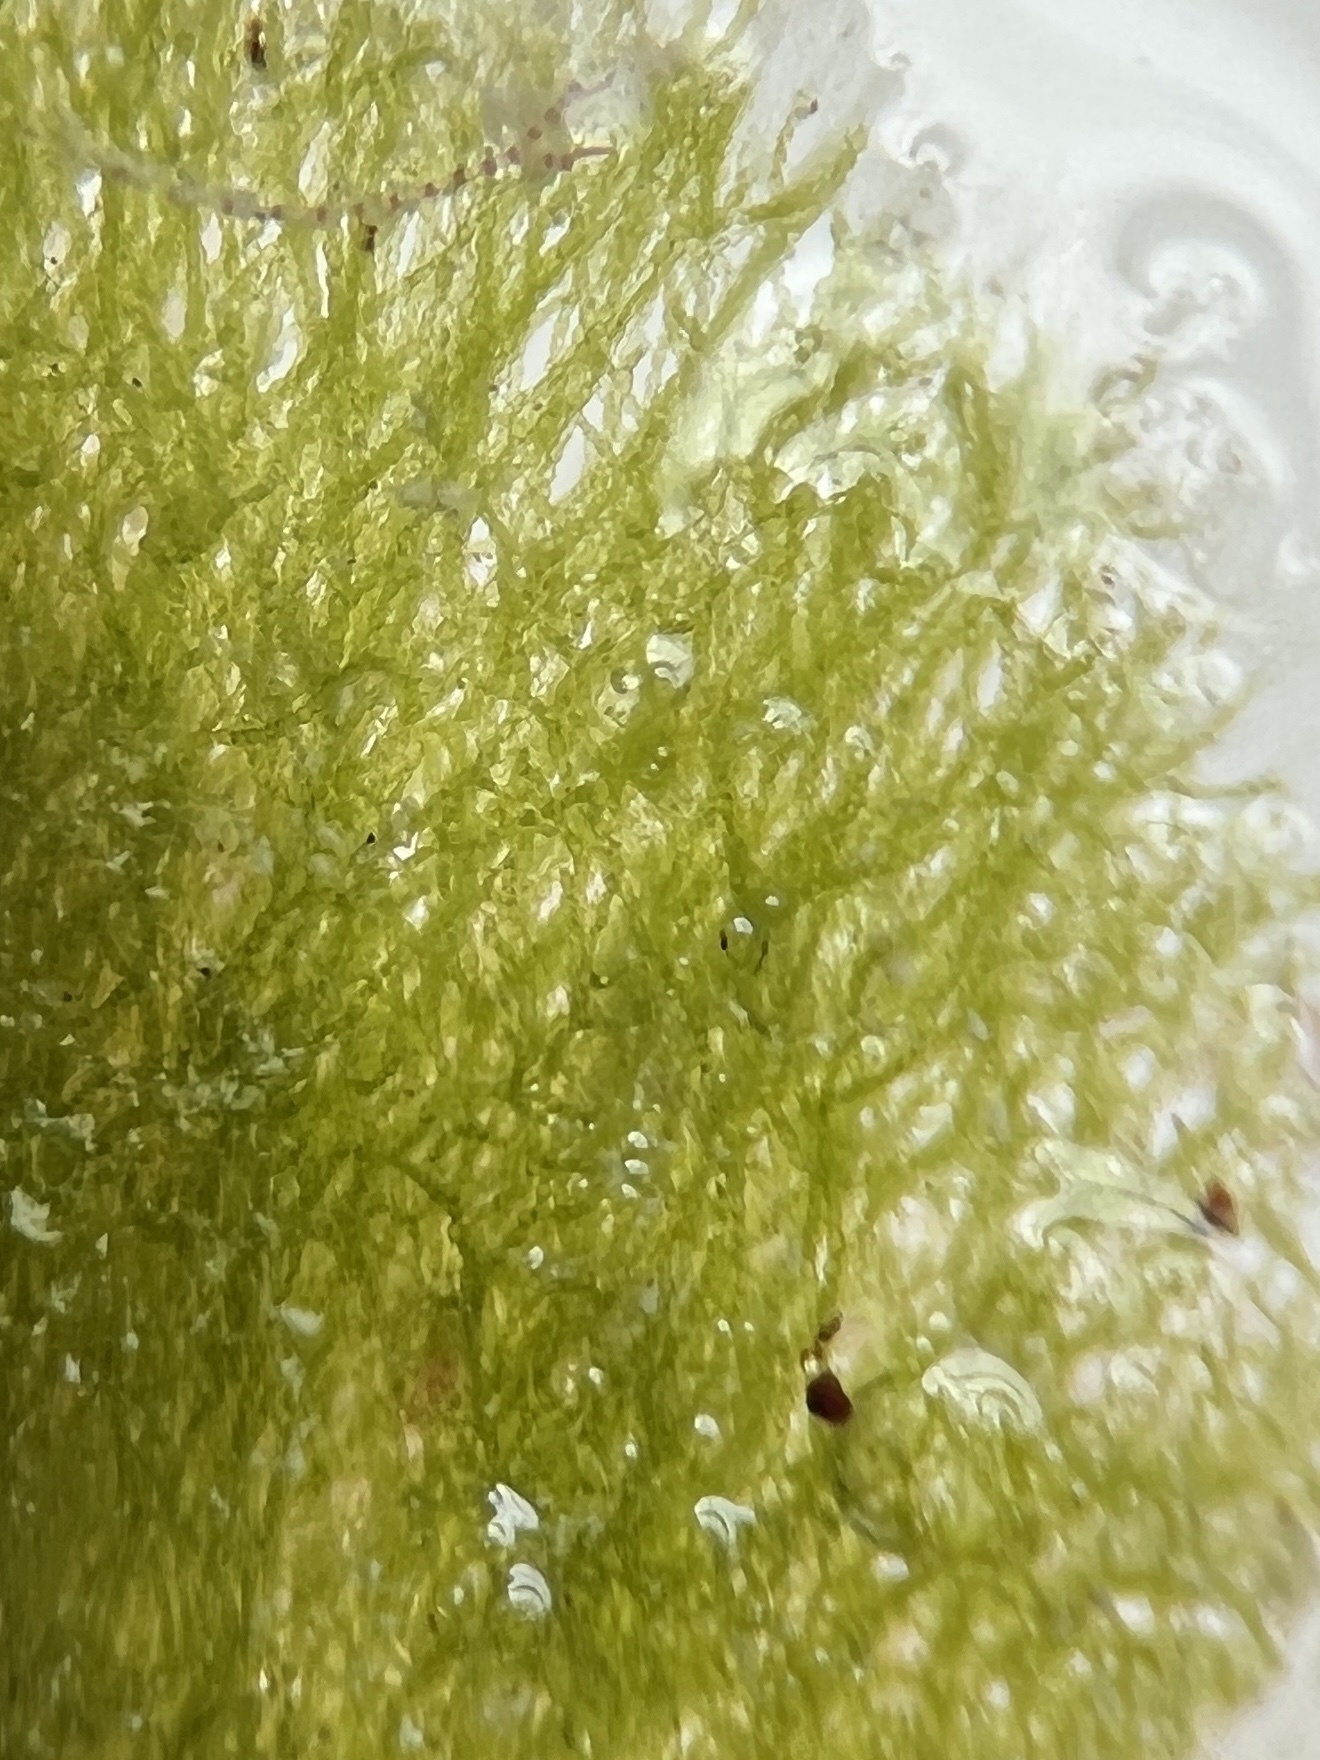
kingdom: Plantae
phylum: Chlorophyta
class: Ulvophyceae
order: Bryopsidales
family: Dichotomosiphonaceae
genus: Avrainvillea
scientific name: Avrainvillea nigricans
